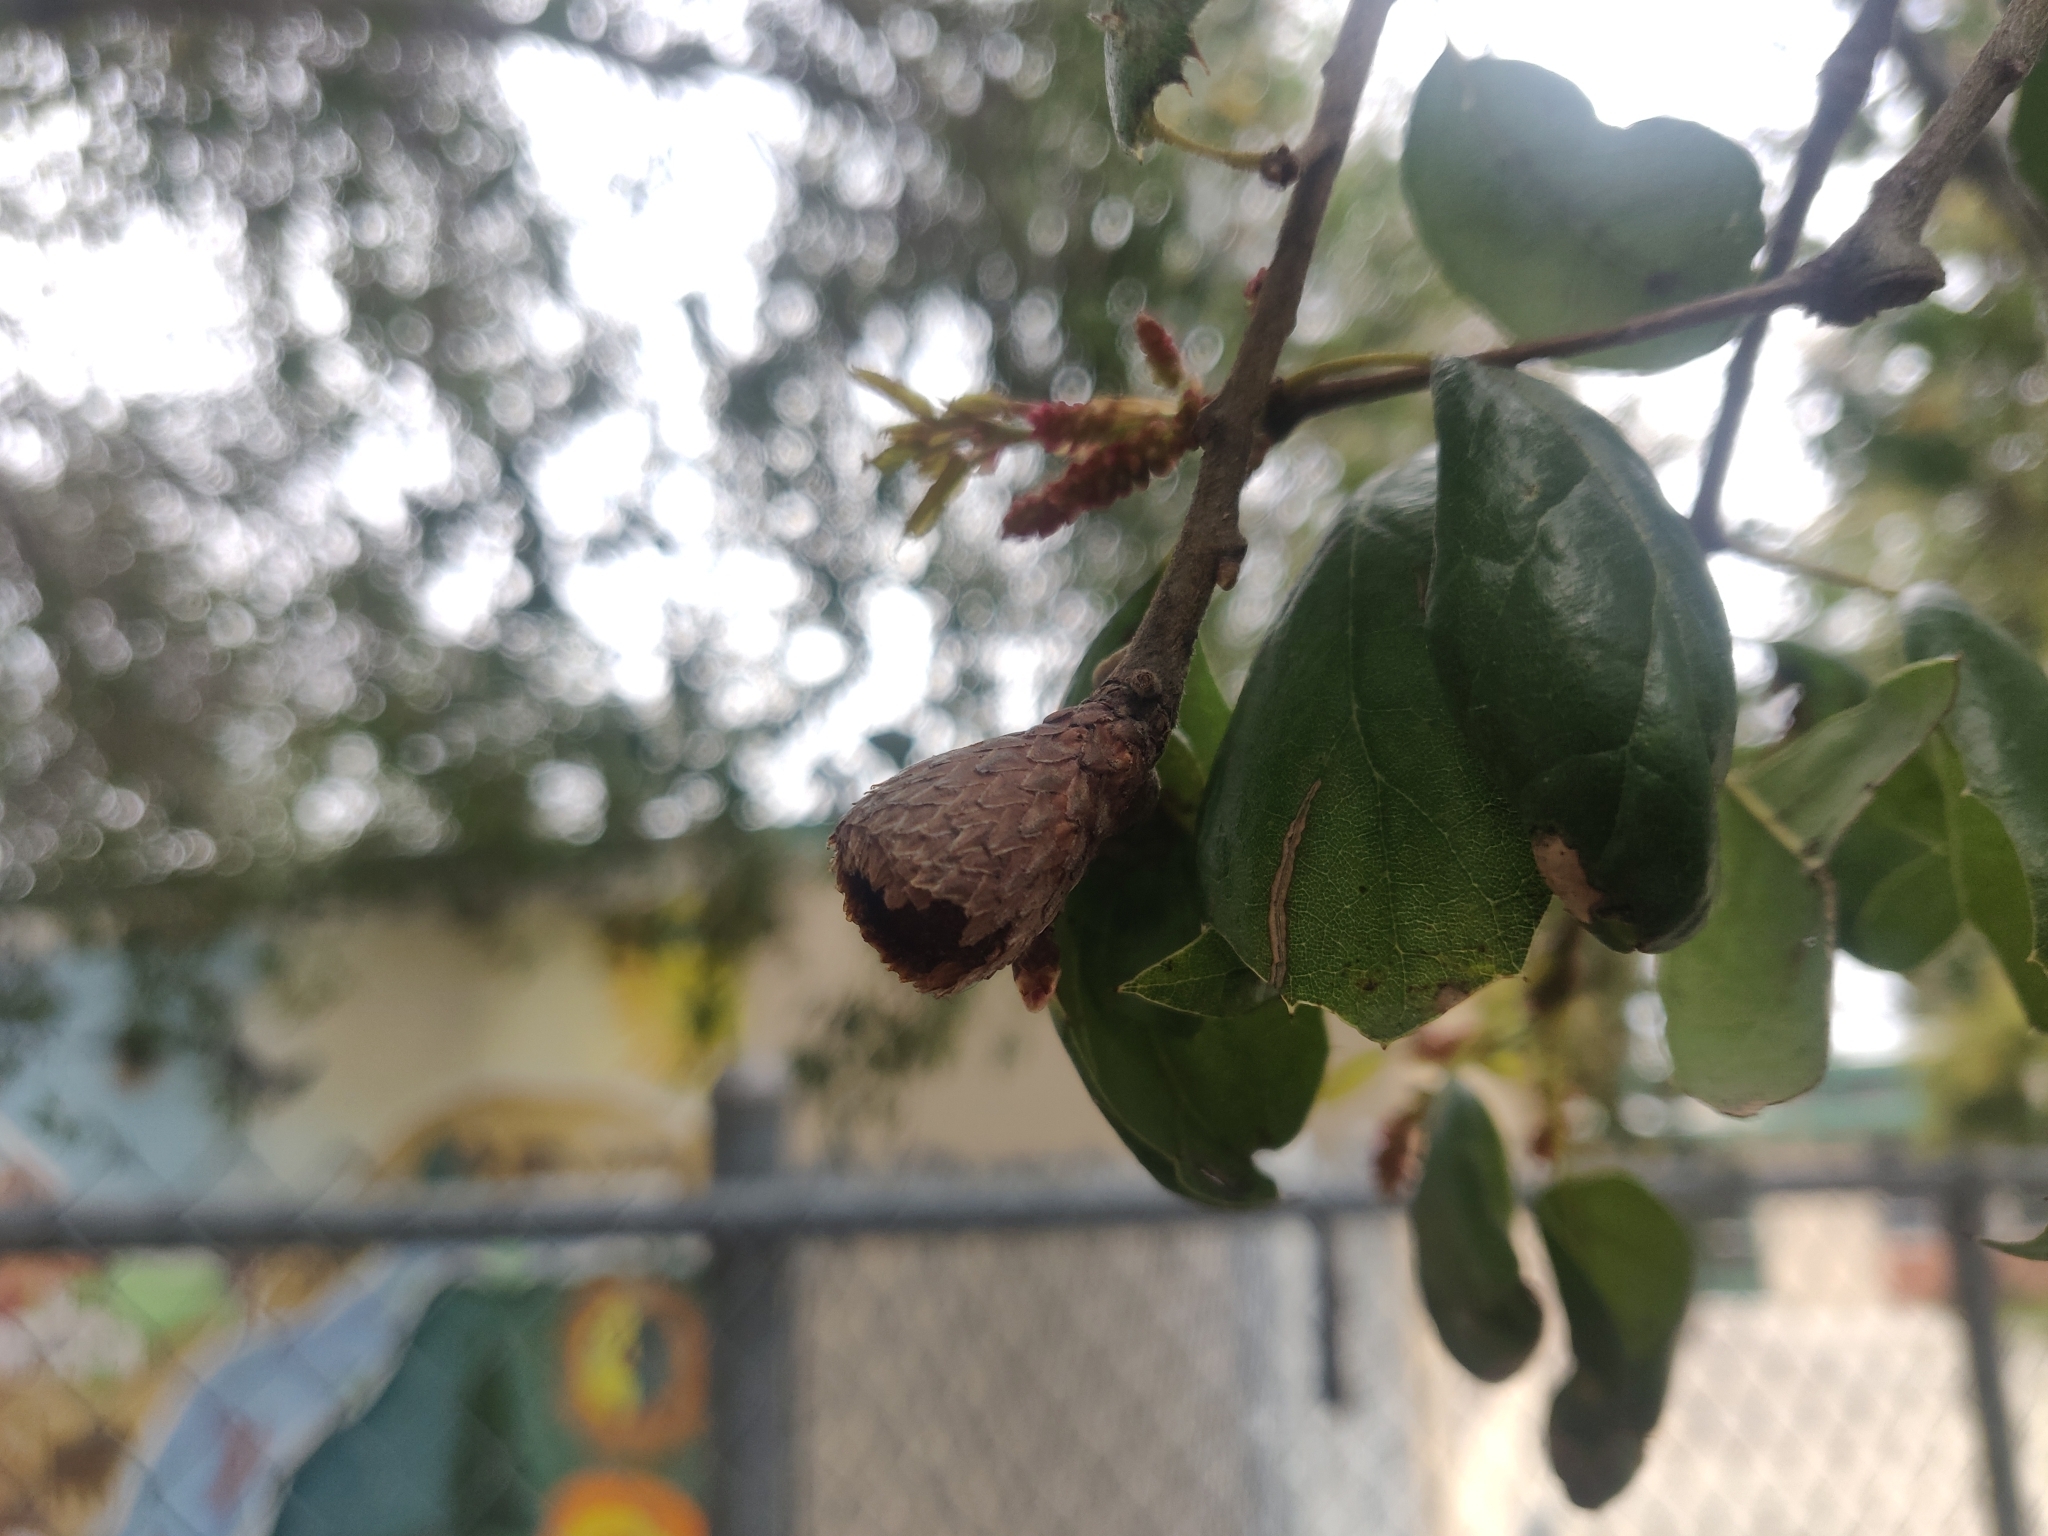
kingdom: Plantae
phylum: Tracheophyta
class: Magnoliopsida
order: Fagales
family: Fagaceae
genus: Quercus
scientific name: Quercus agrifolia
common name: California live oak
